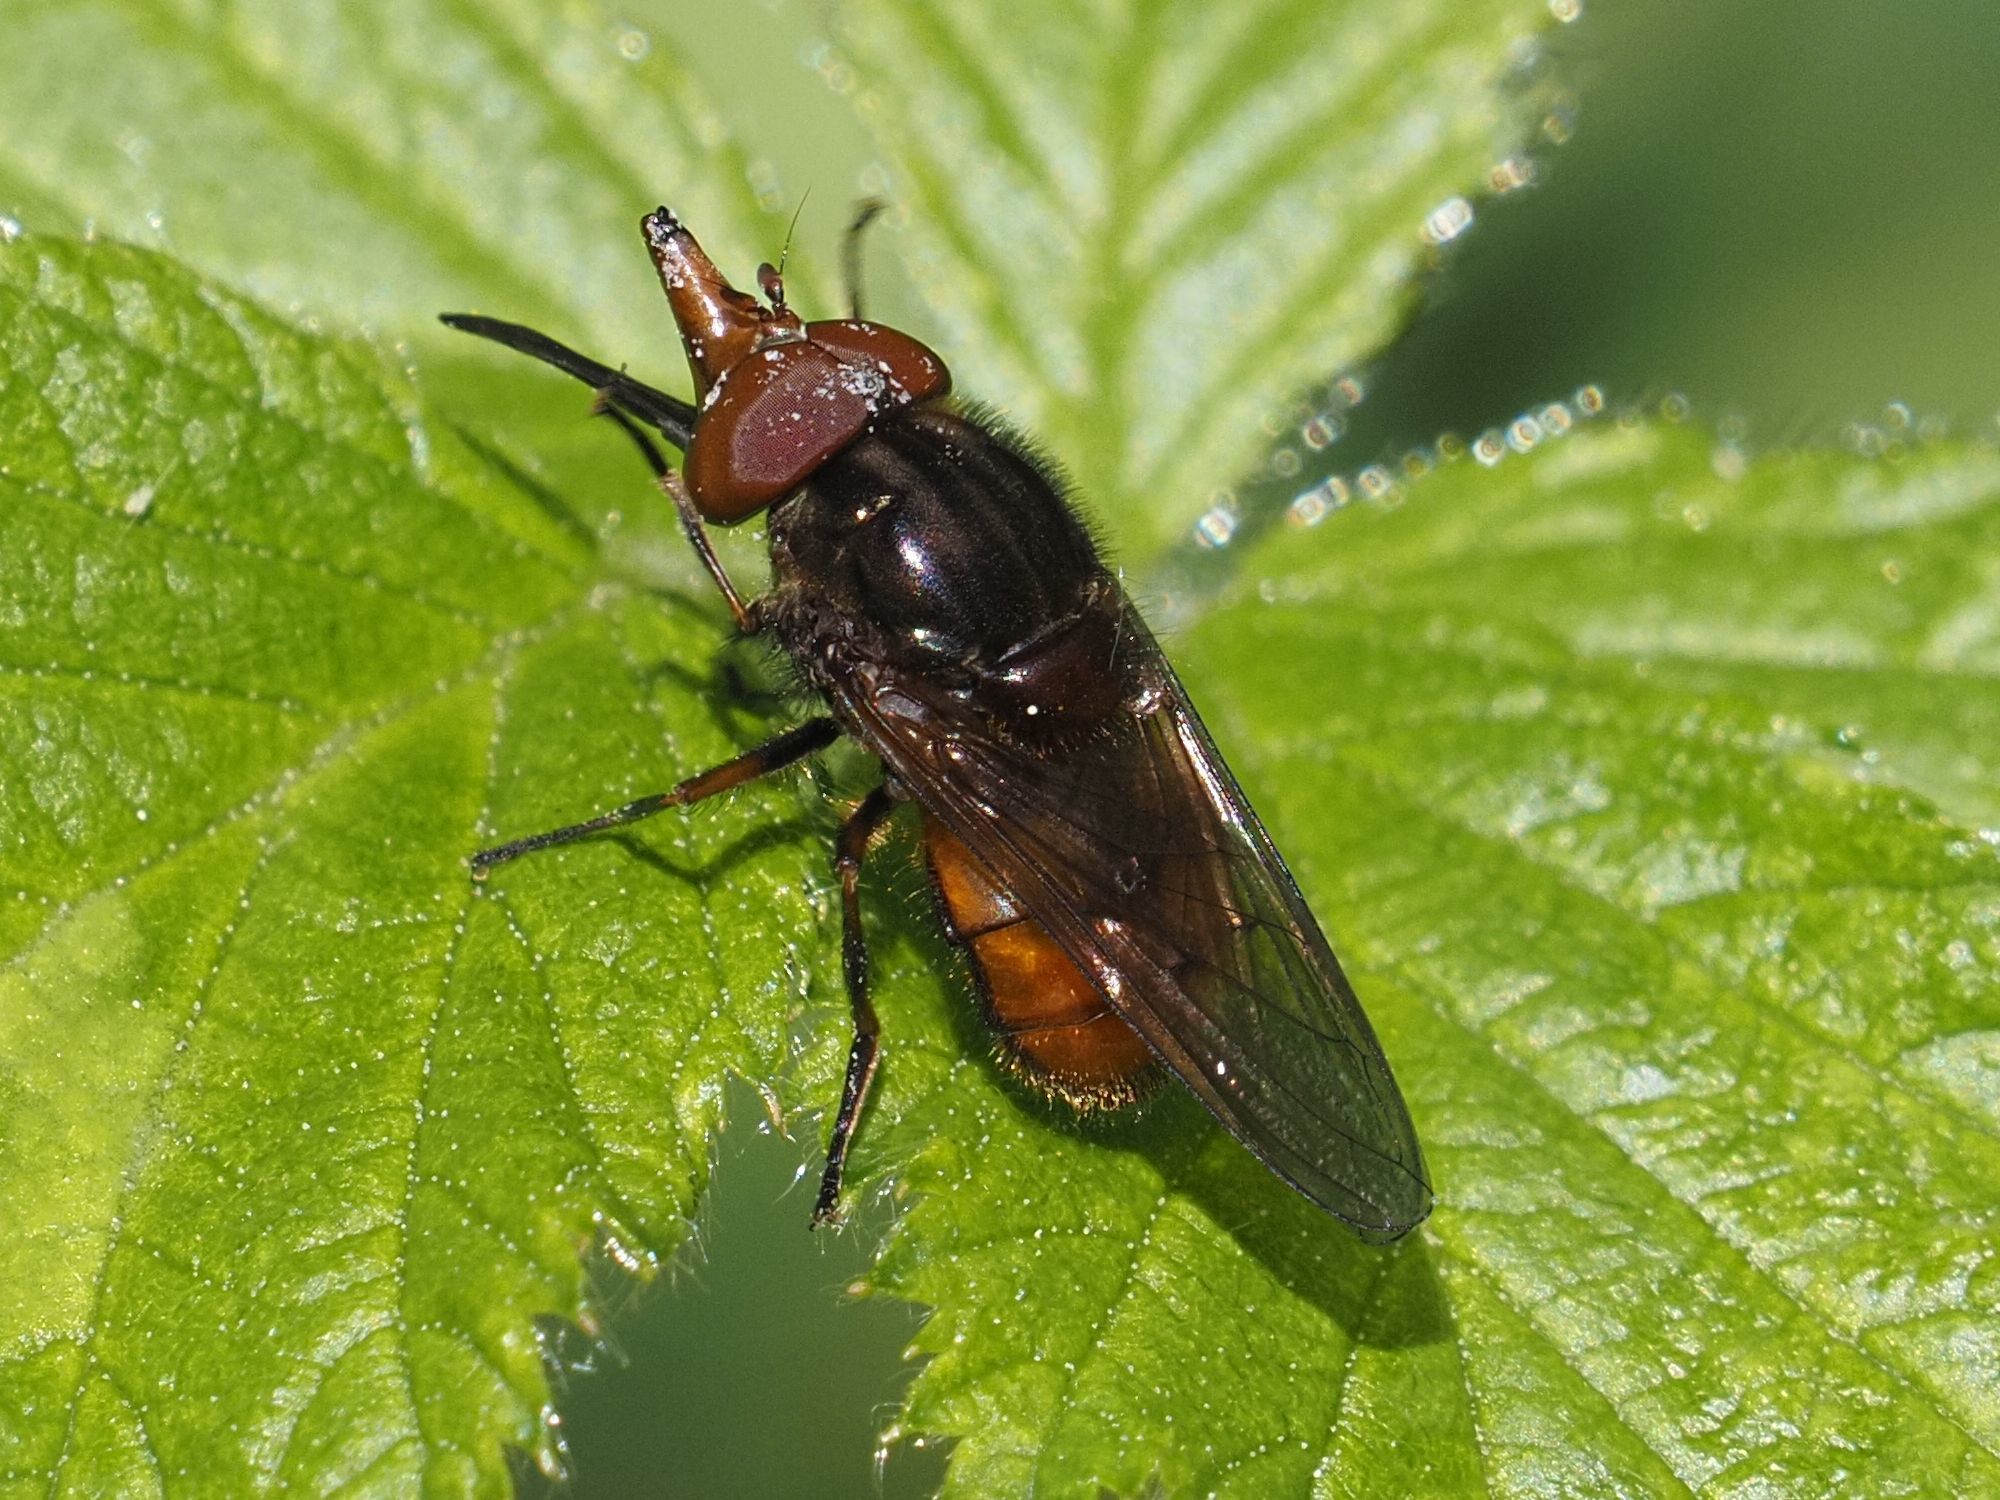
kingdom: Animalia
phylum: Arthropoda
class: Insecta
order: Diptera
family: Syrphidae
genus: Rhingia
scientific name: Rhingia campestris
